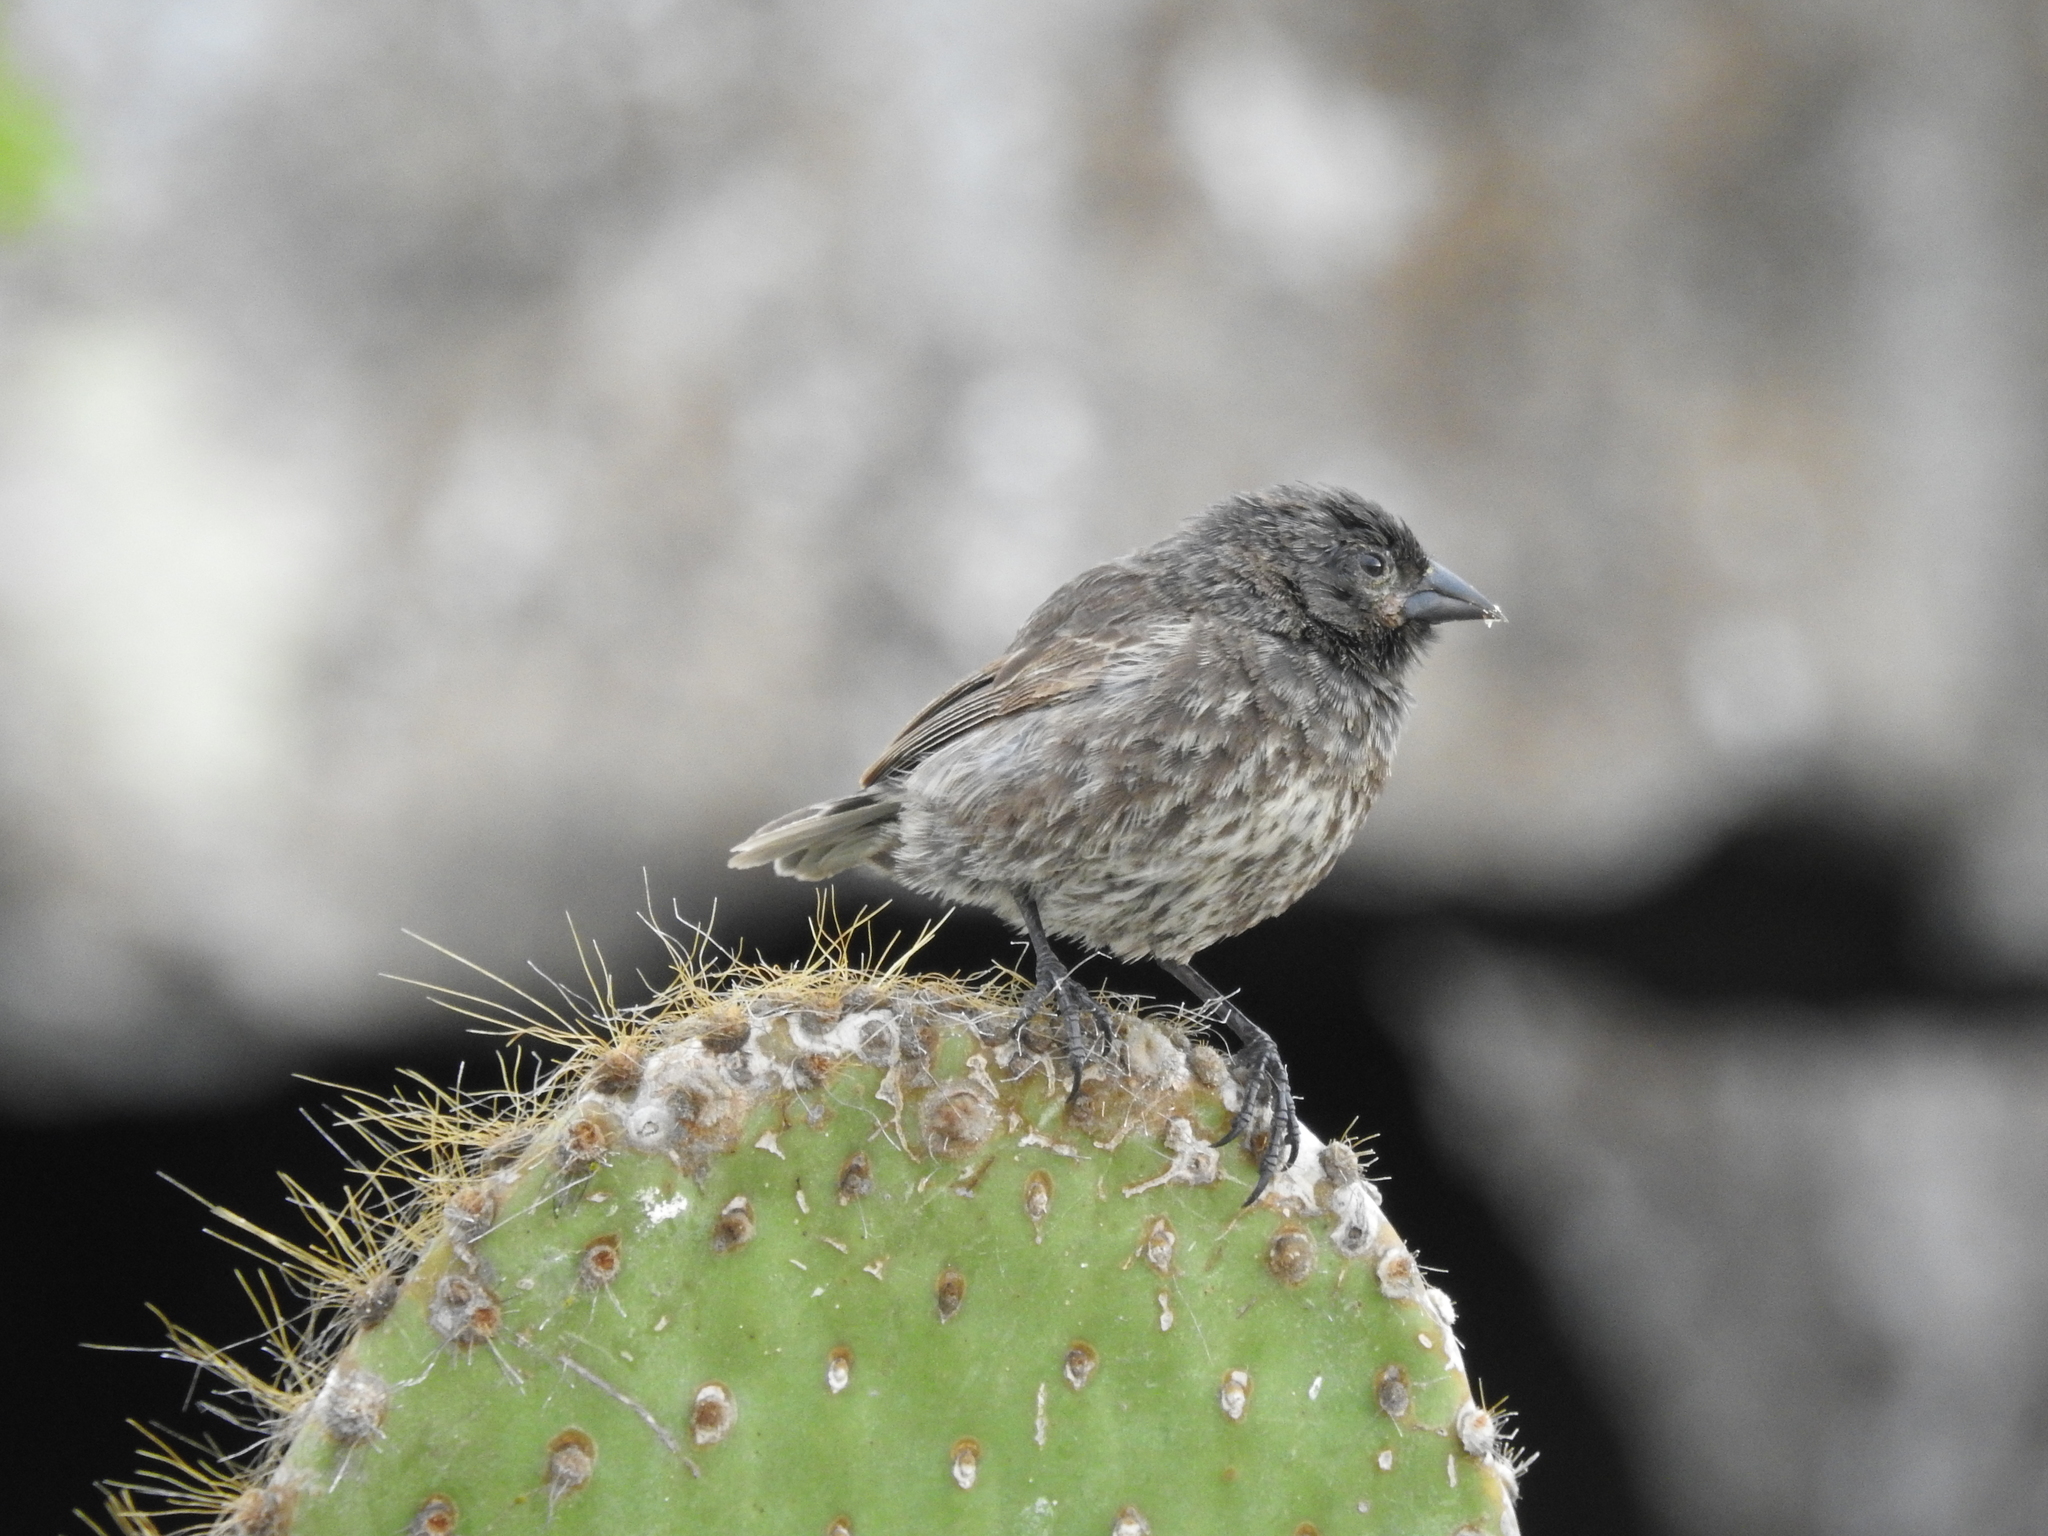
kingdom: Animalia
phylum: Chordata
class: Aves
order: Passeriformes
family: Thraupidae
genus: Geospiza
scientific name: Geospiza acutirostris
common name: Genovesa ground-finch
